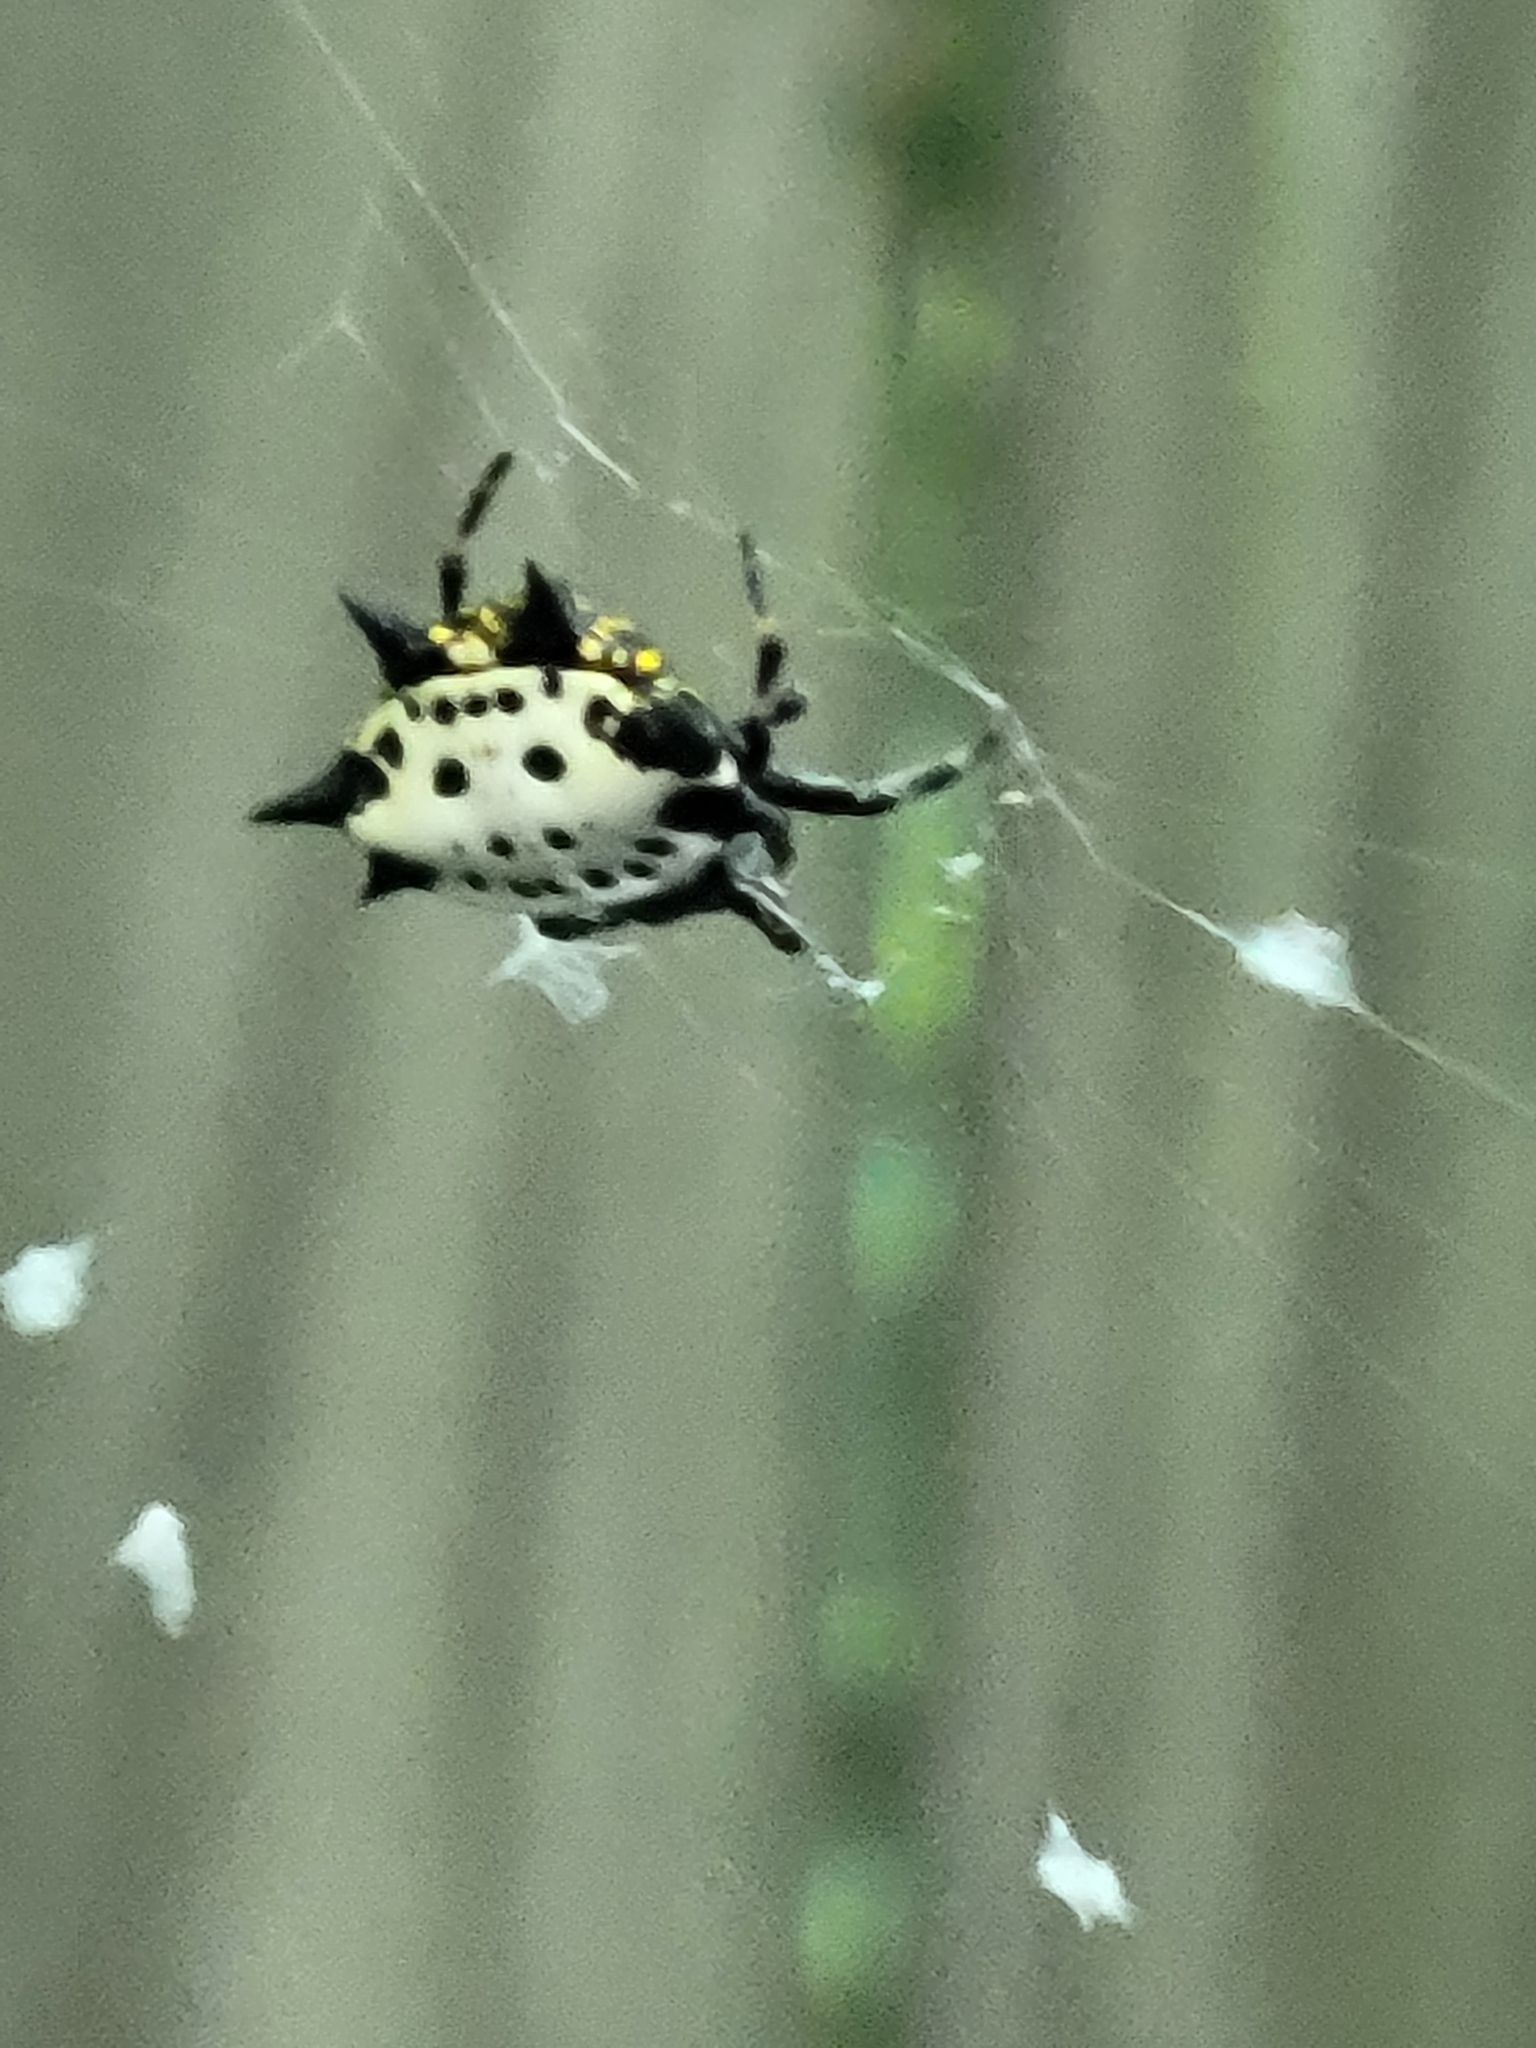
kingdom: Animalia
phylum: Arthropoda
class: Arachnida
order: Araneae
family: Araneidae
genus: Gasteracantha
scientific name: Gasteracantha cancriformis
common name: Orb weavers
